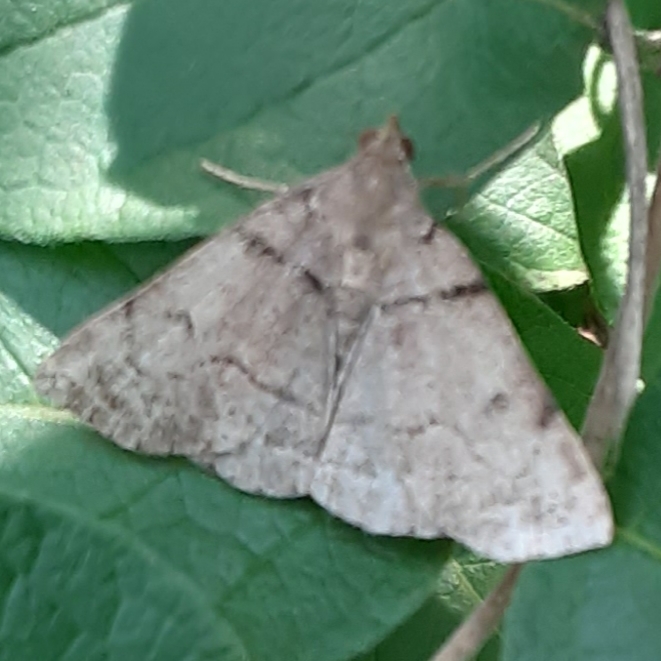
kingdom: Animalia
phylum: Arthropoda
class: Insecta
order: Lepidoptera
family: Erebidae
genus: Zanclognatha
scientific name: Zanclognatha laevigata
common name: Variable fan-foot
